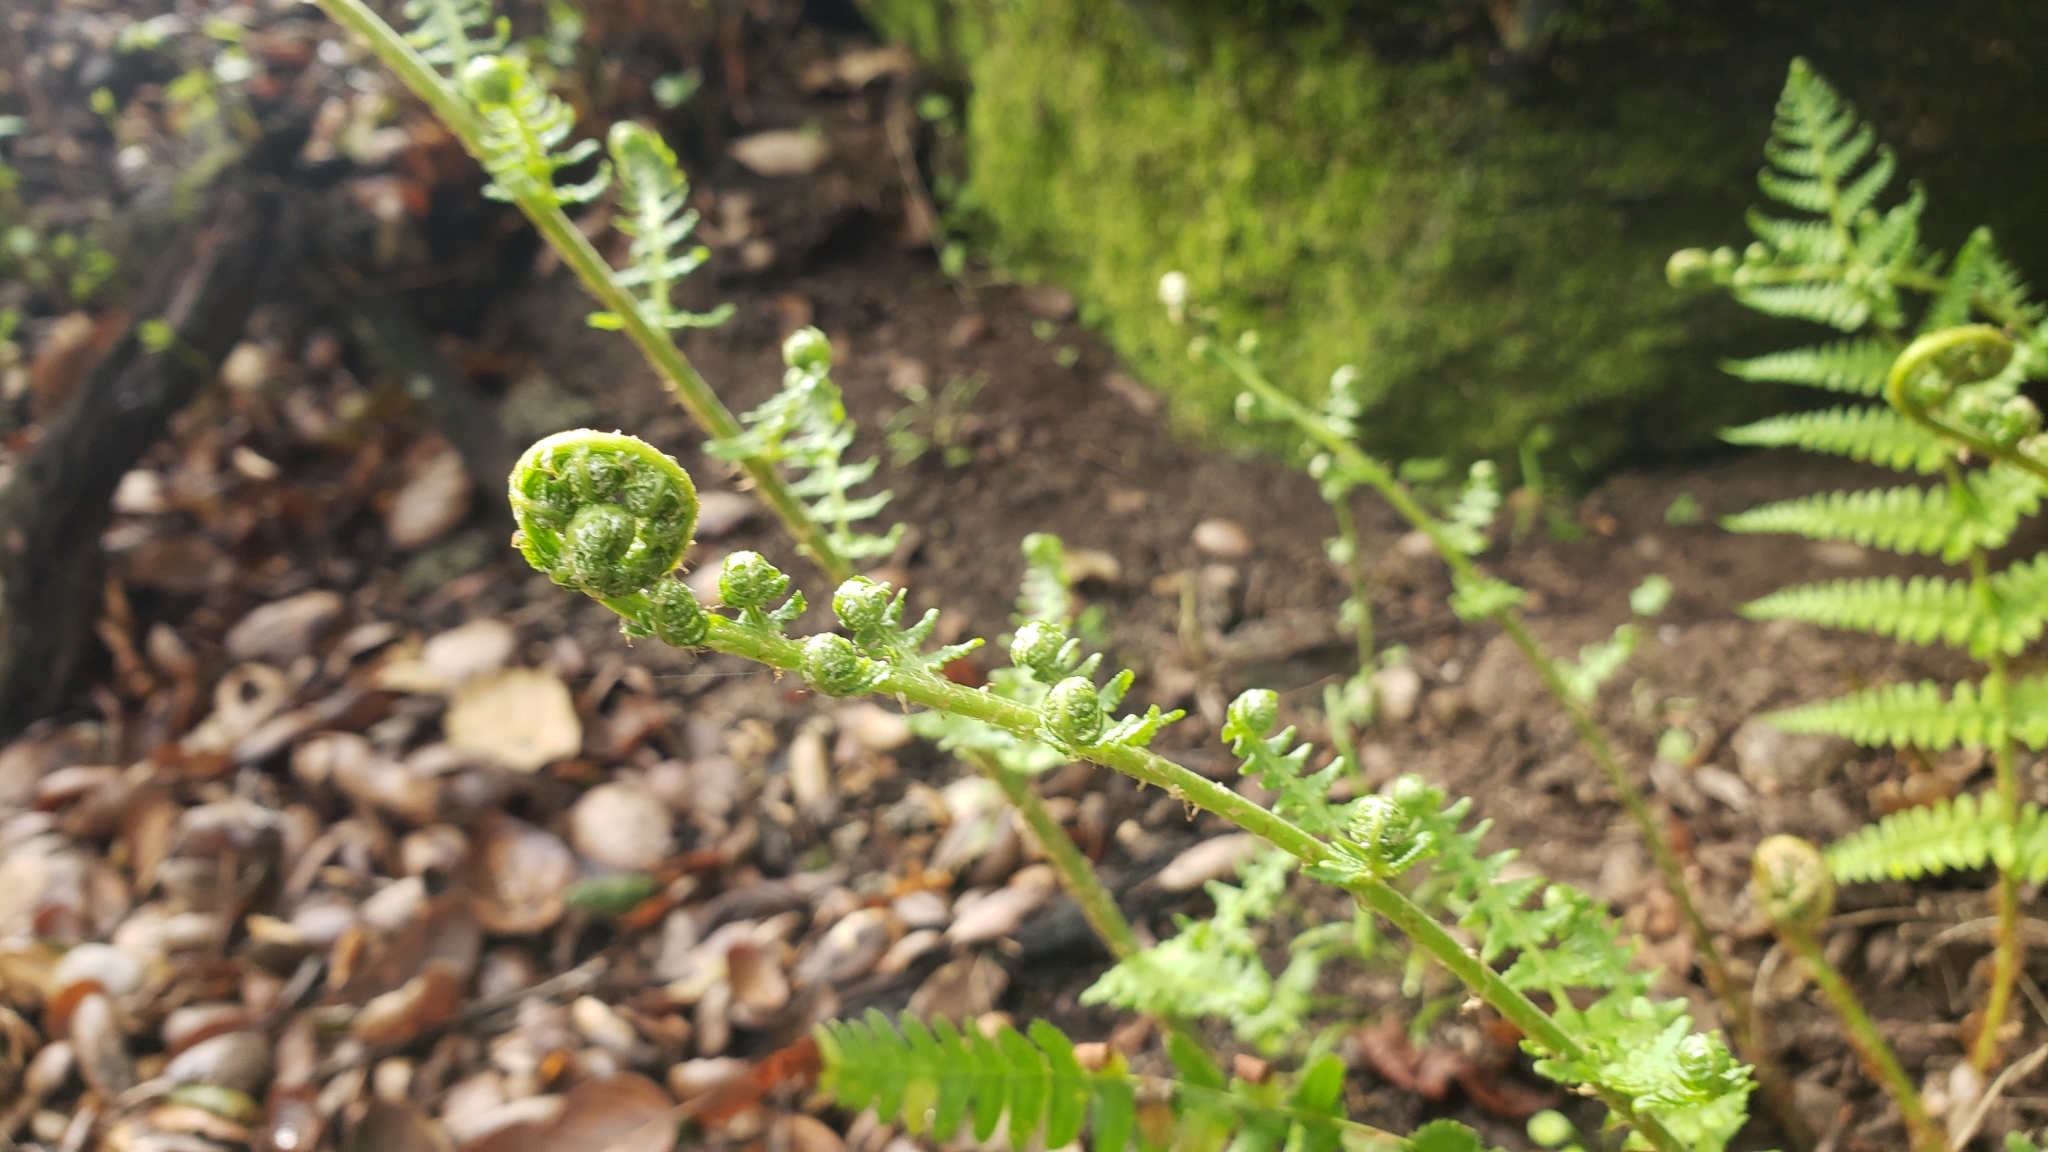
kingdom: Plantae
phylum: Tracheophyta
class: Polypodiopsida
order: Polypodiales
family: Dryopteridaceae
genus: Dryopteris
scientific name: Dryopteris arguta
